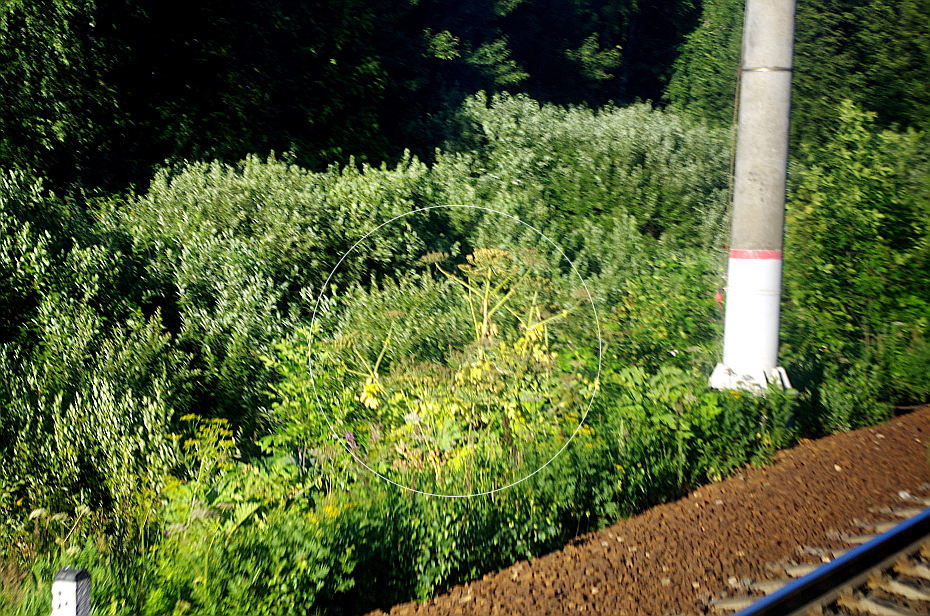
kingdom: Plantae
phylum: Tracheophyta
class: Magnoliopsida
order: Apiales
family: Apiaceae
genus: Heracleum
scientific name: Heracleum sosnowskyi
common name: Sosnowsky's hogweed
